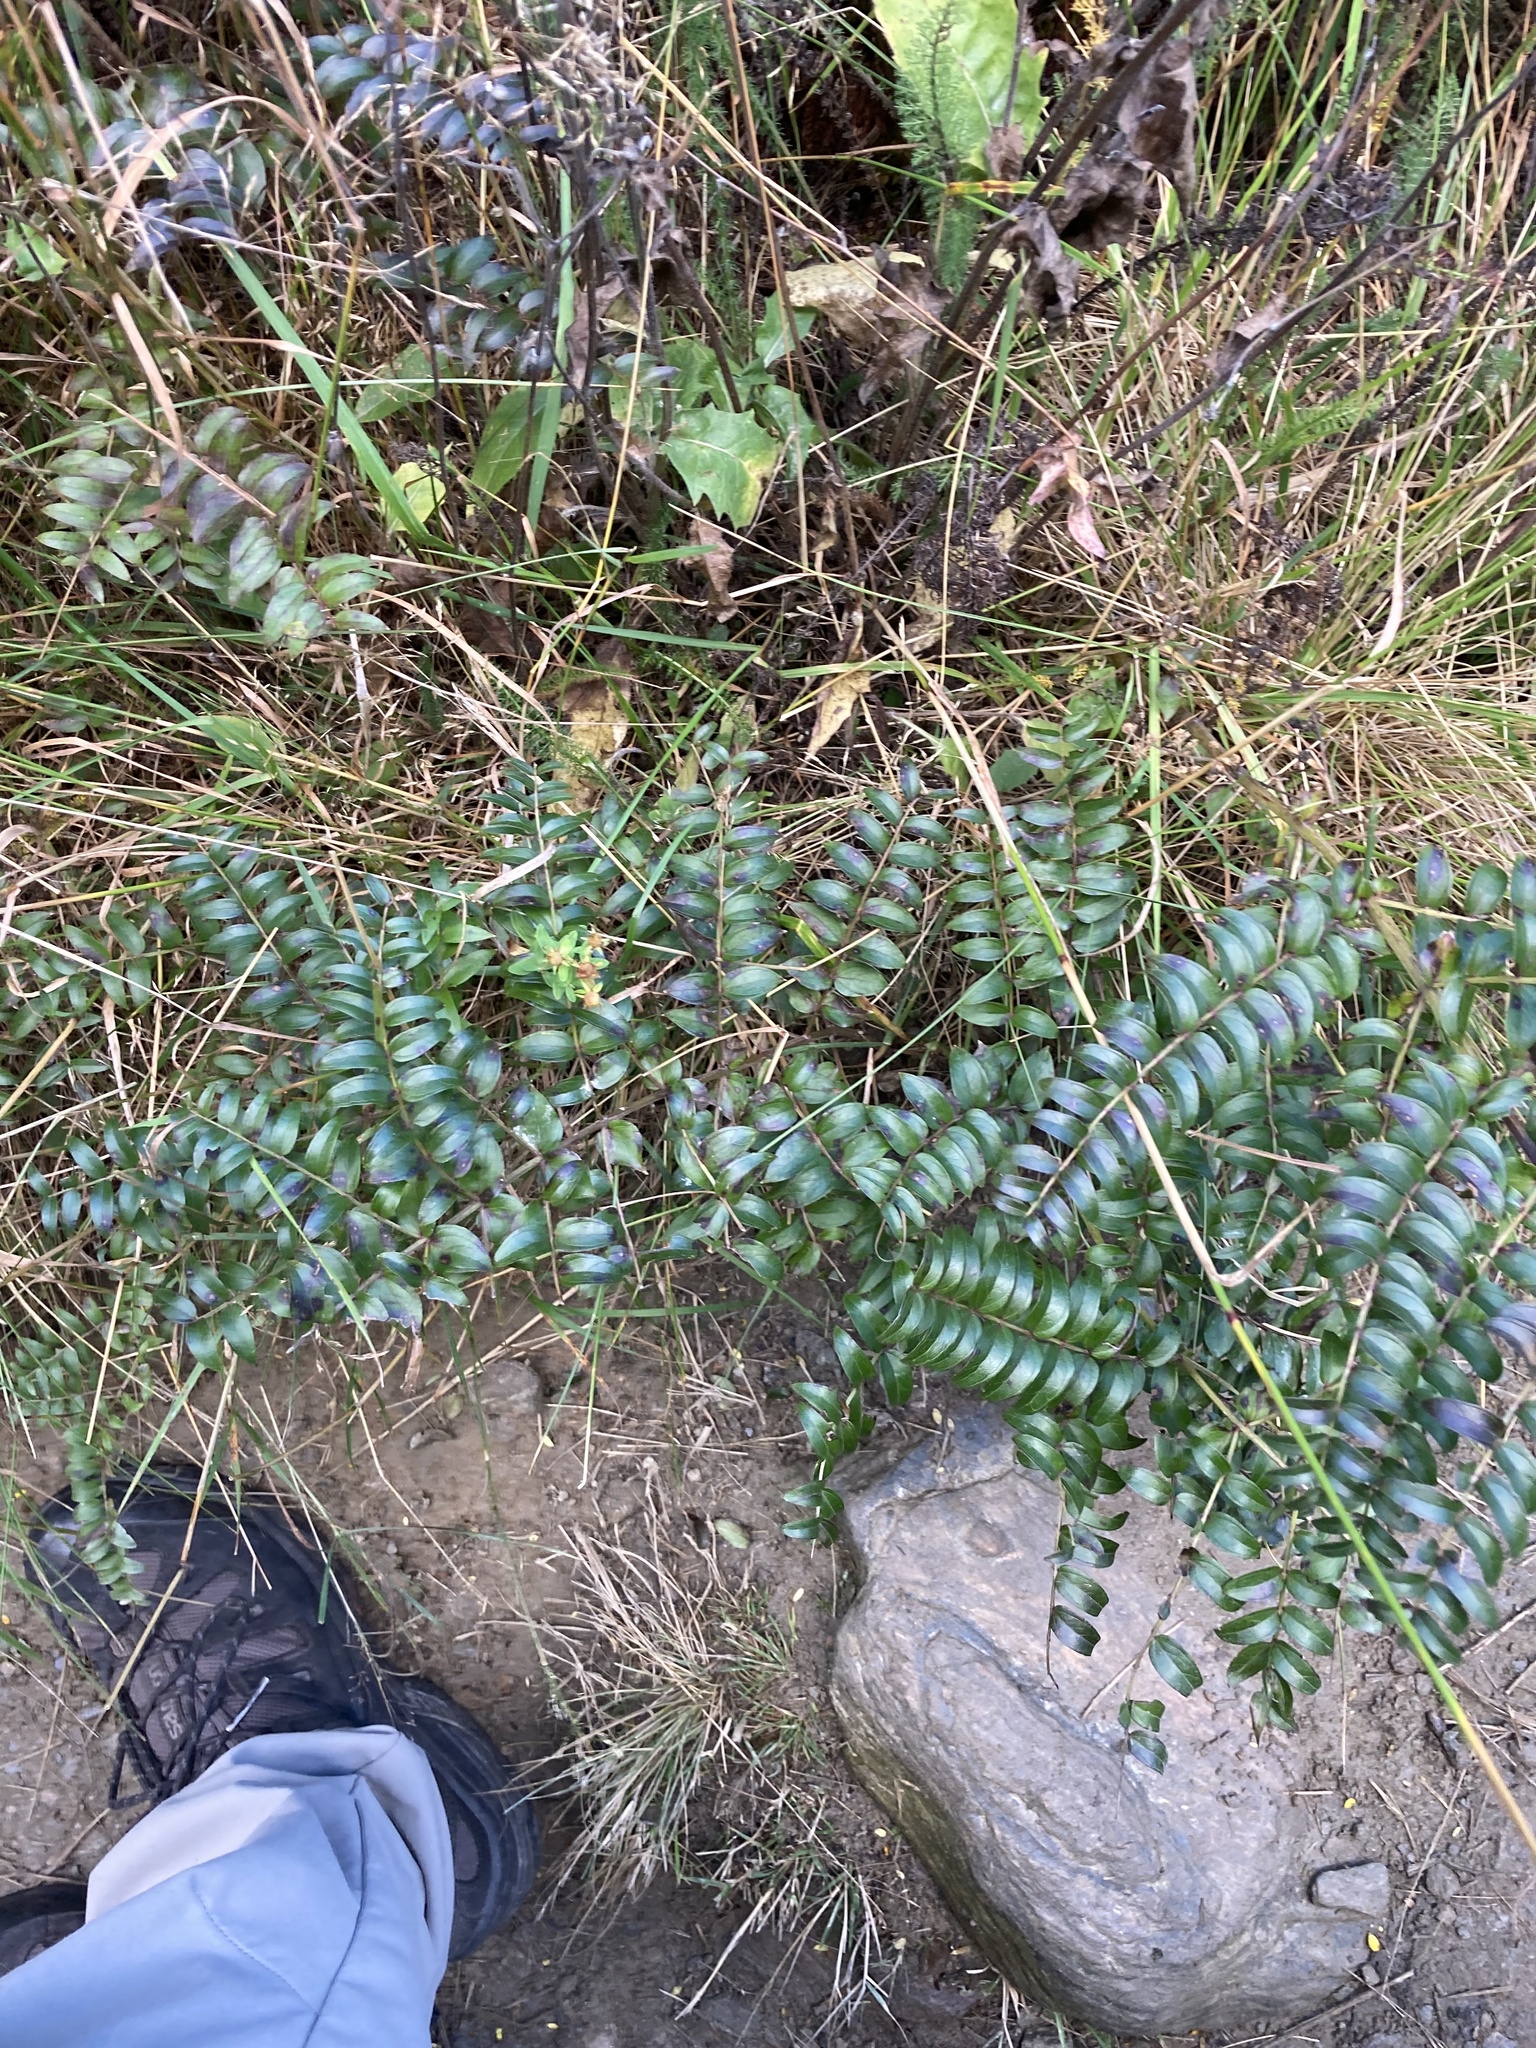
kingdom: Plantae
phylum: Tracheophyta
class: Magnoliopsida
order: Cucurbitales
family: Coriariaceae
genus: Coriaria
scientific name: Coriaria plumosa
